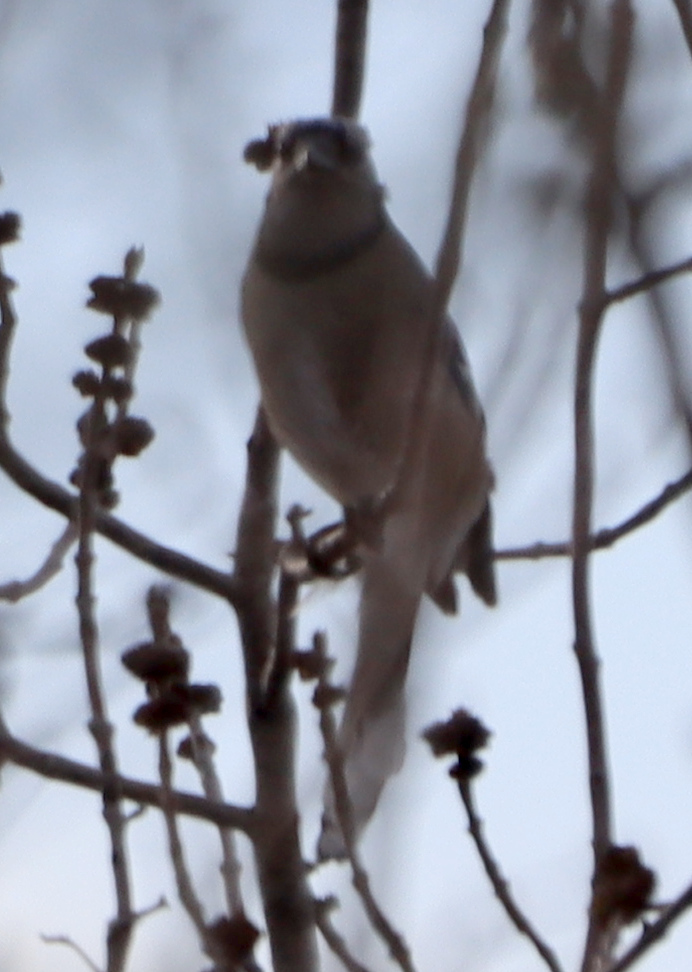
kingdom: Animalia
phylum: Chordata
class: Aves
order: Passeriformes
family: Corvidae
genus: Cyanocitta
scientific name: Cyanocitta cristata
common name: Blue jay
